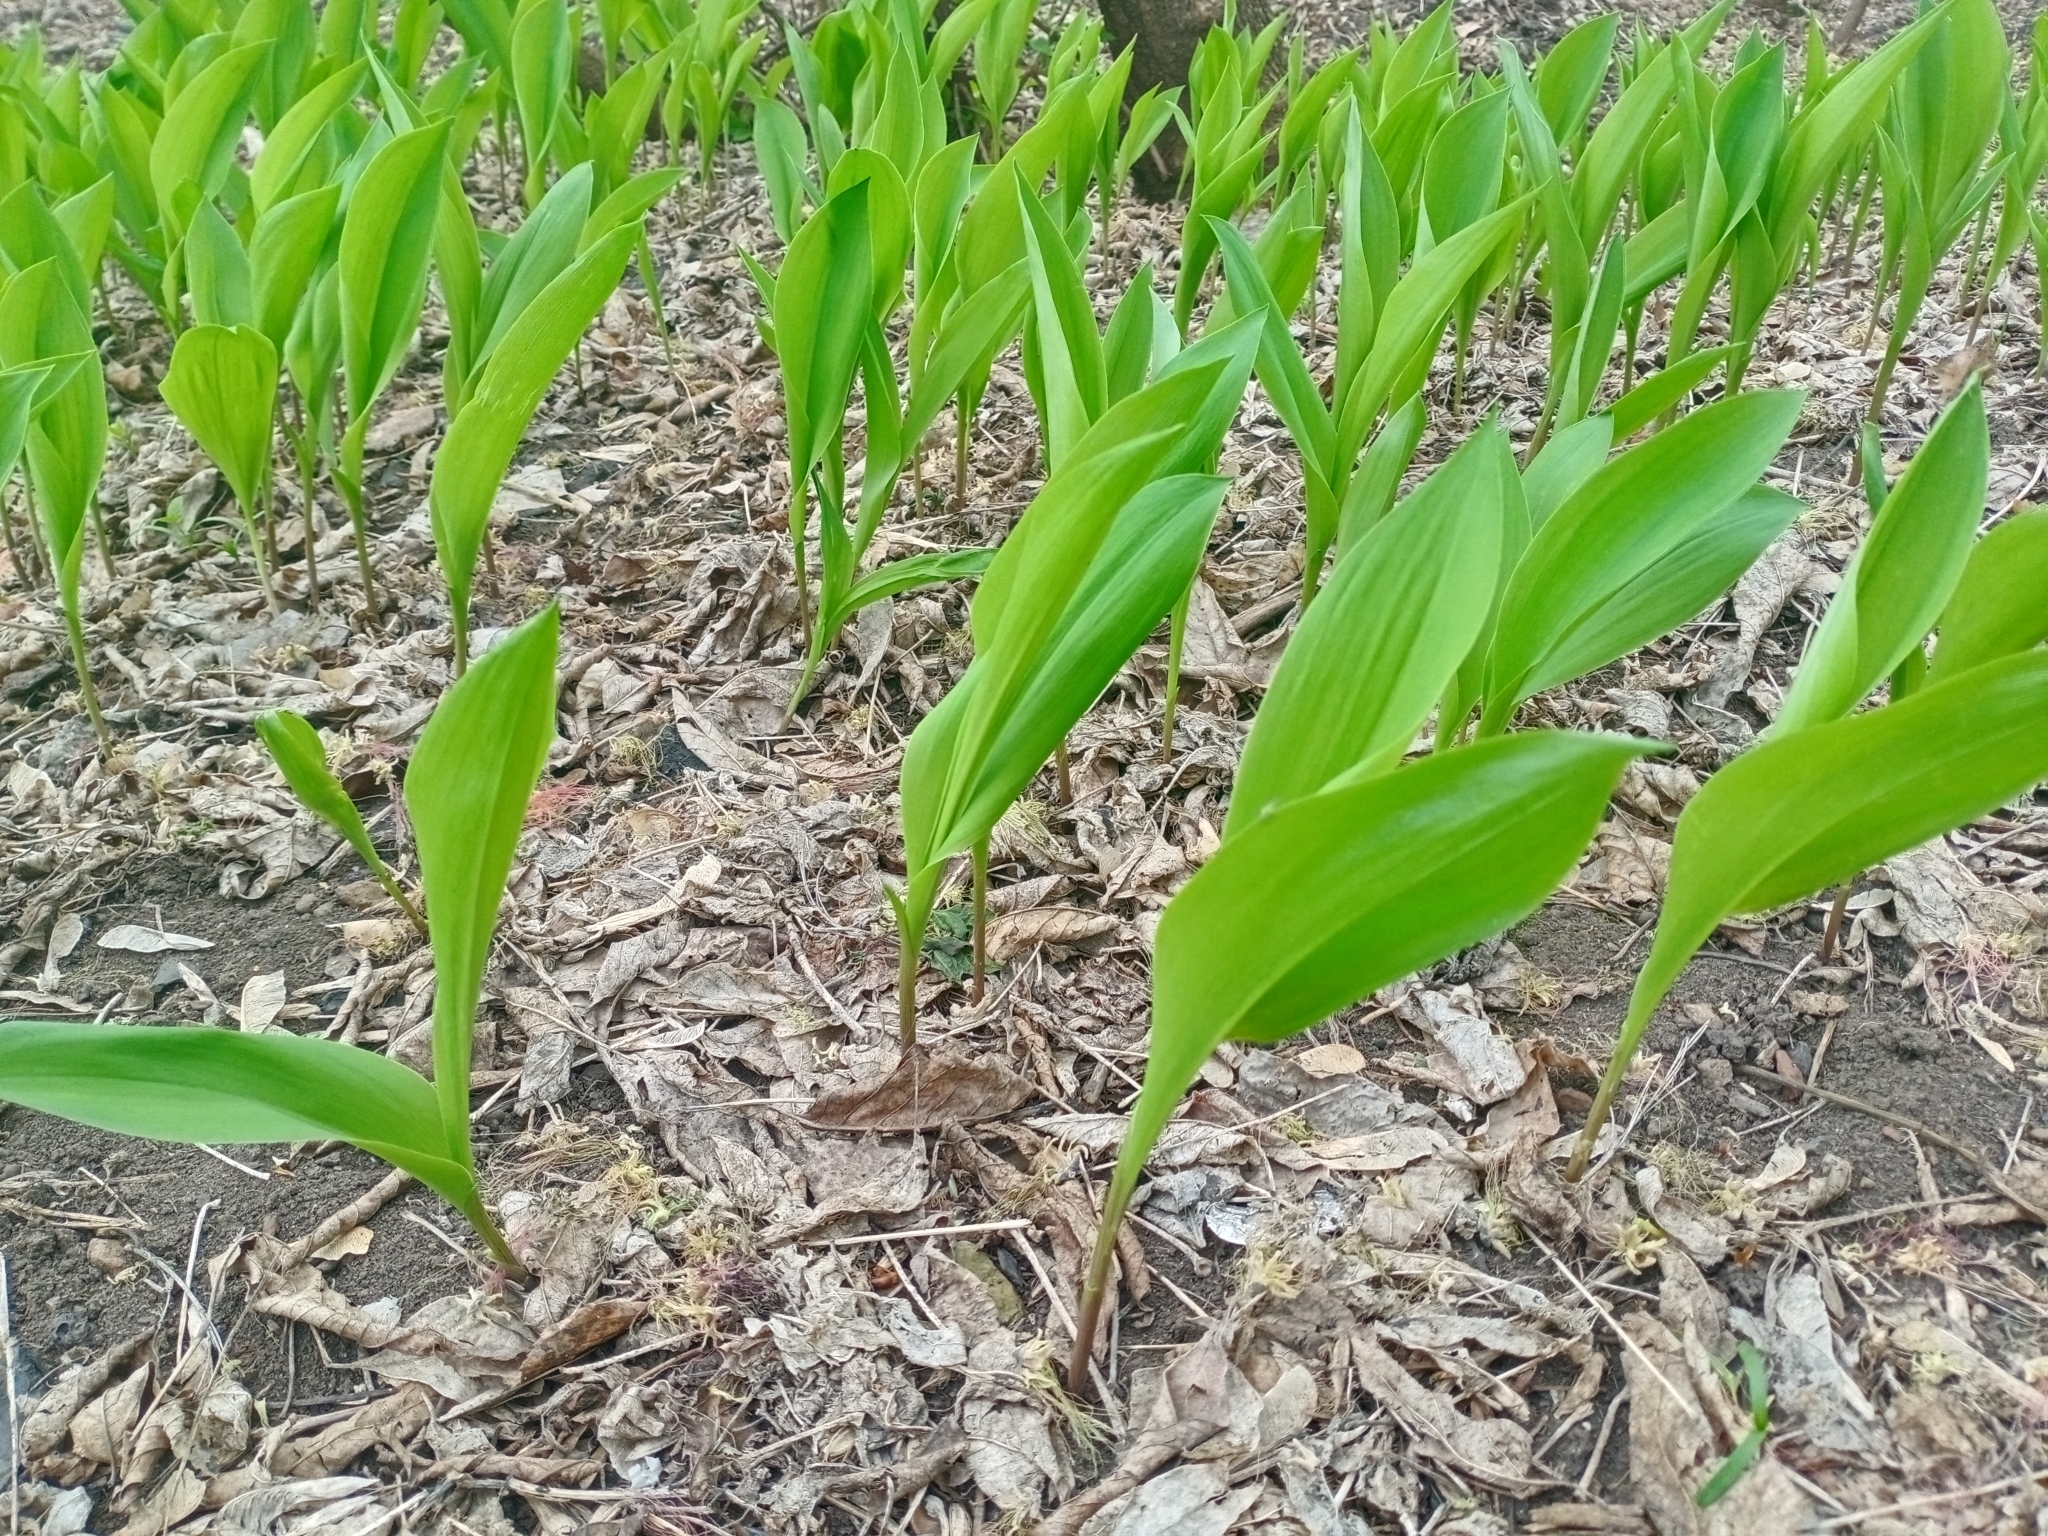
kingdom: Plantae
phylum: Tracheophyta
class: Liliopsida
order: Asparagales
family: Asparagaceae
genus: Convallaria
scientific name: Convallaria majalis
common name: Lily-of-the-valley
